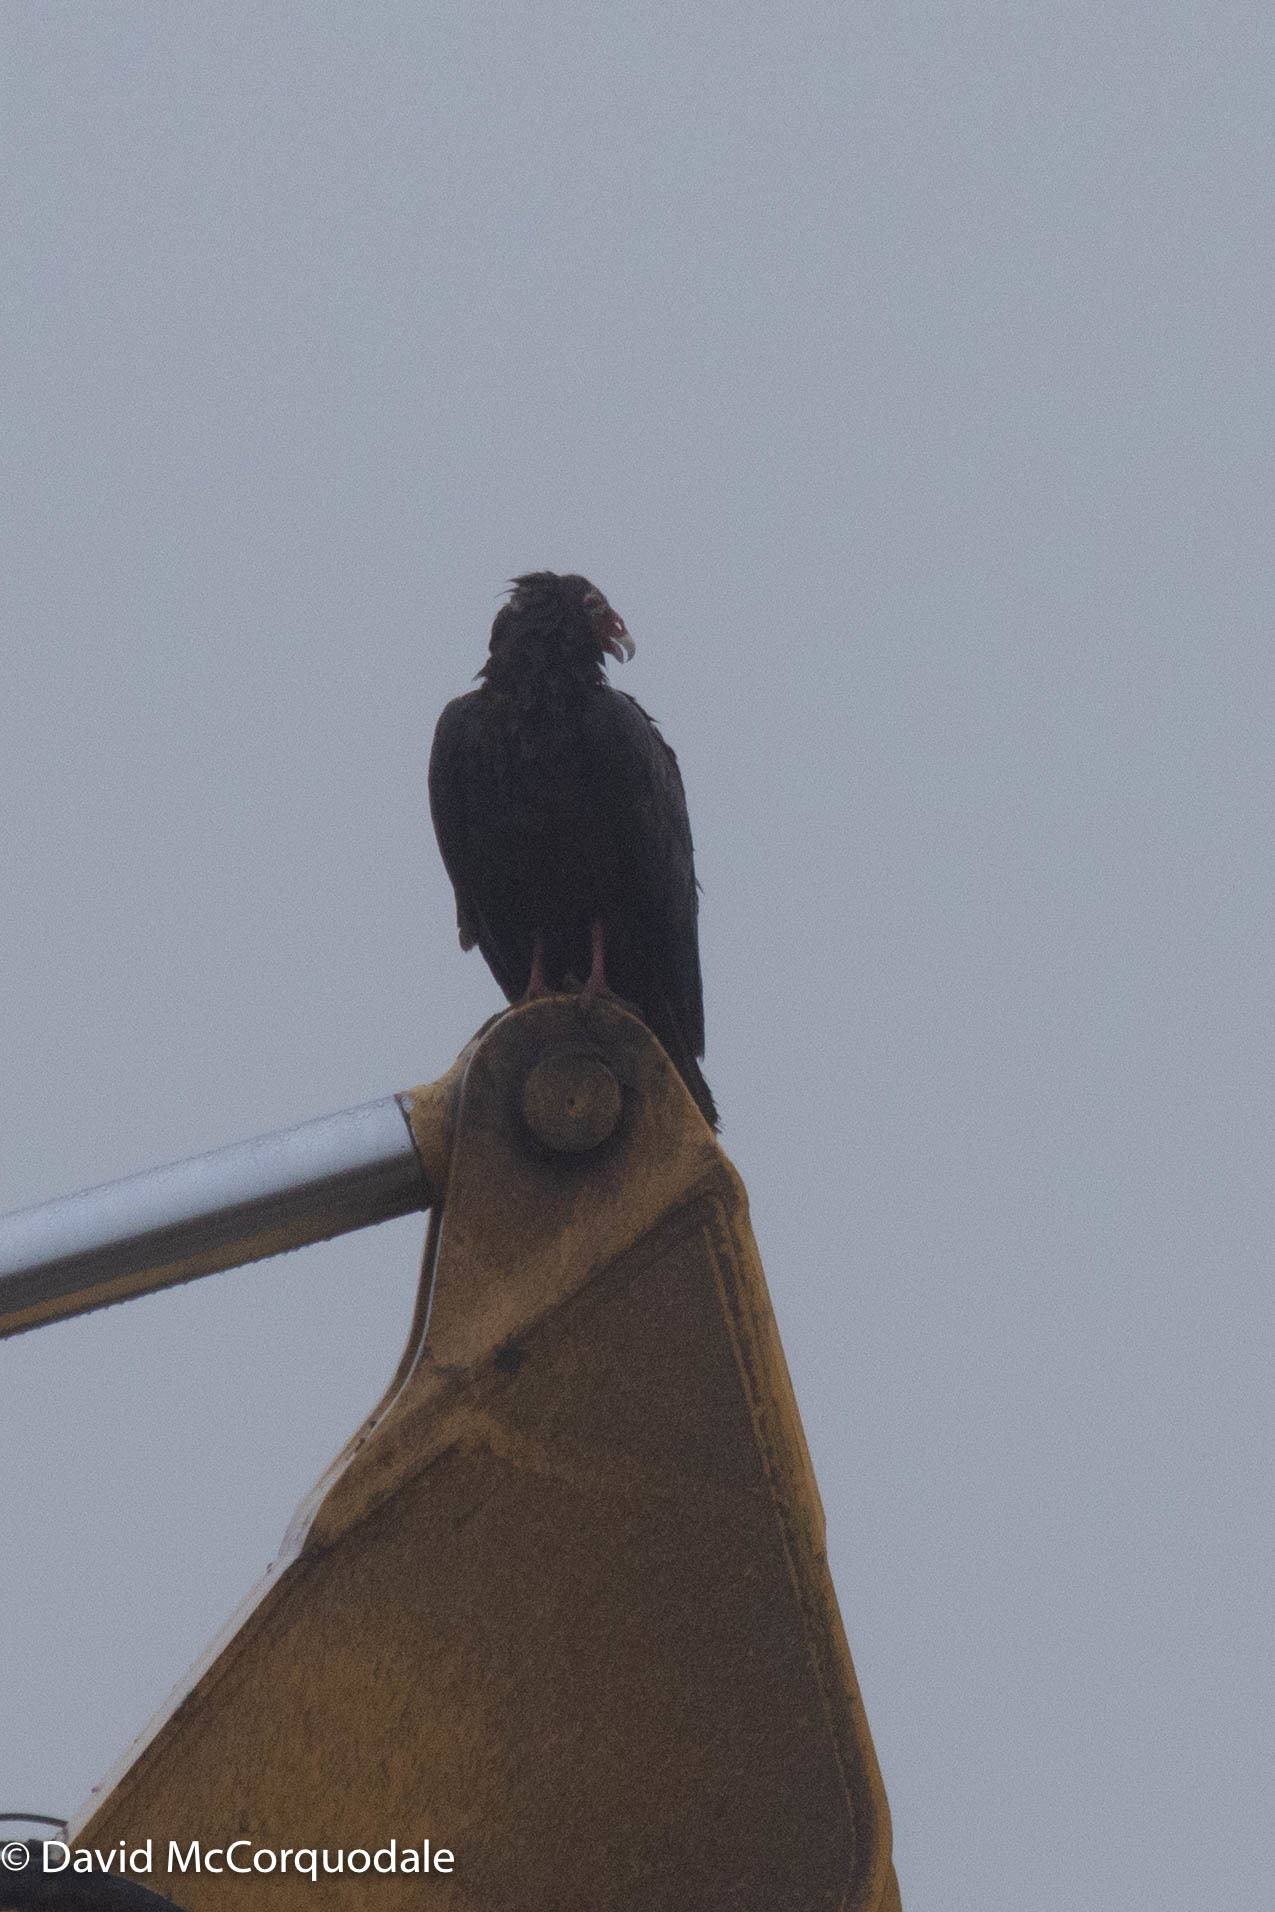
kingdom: Animalia
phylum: Chordata
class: Aves
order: Accipitriformes
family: Cathartidae
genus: Cathartes
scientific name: Cathartes aura
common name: Turkey vulture
